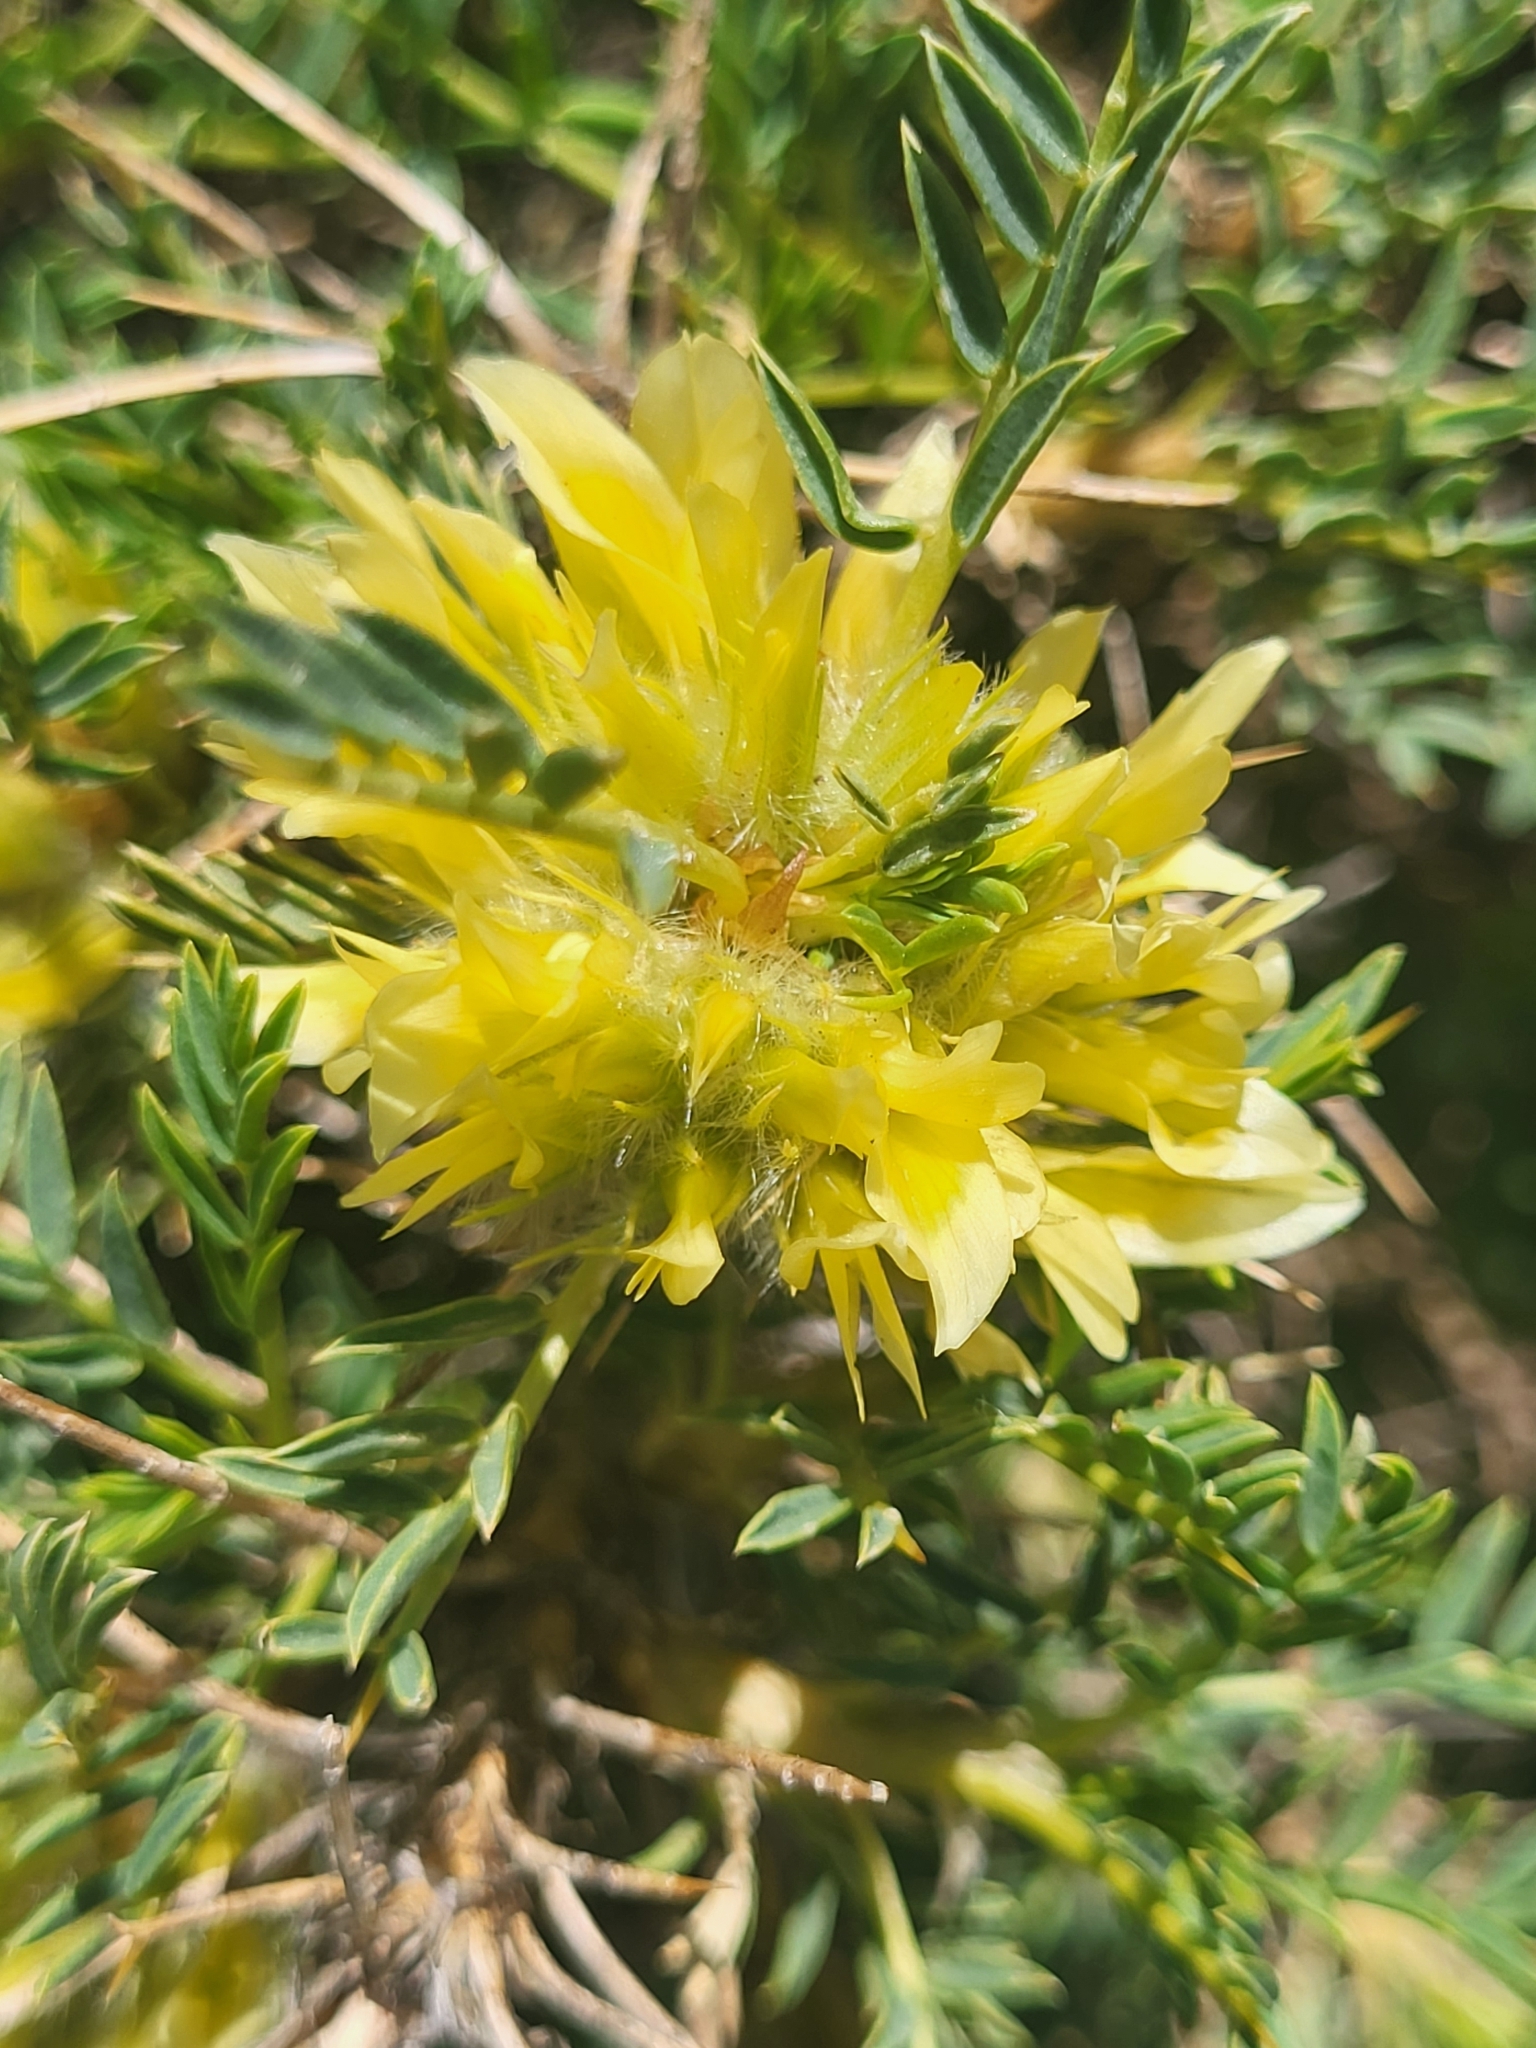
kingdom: Plantae
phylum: Tracheophyta
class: Magnoliopsida
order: Fabales
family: Fabaceae
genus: Astragalus
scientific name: Astragalus aureus
